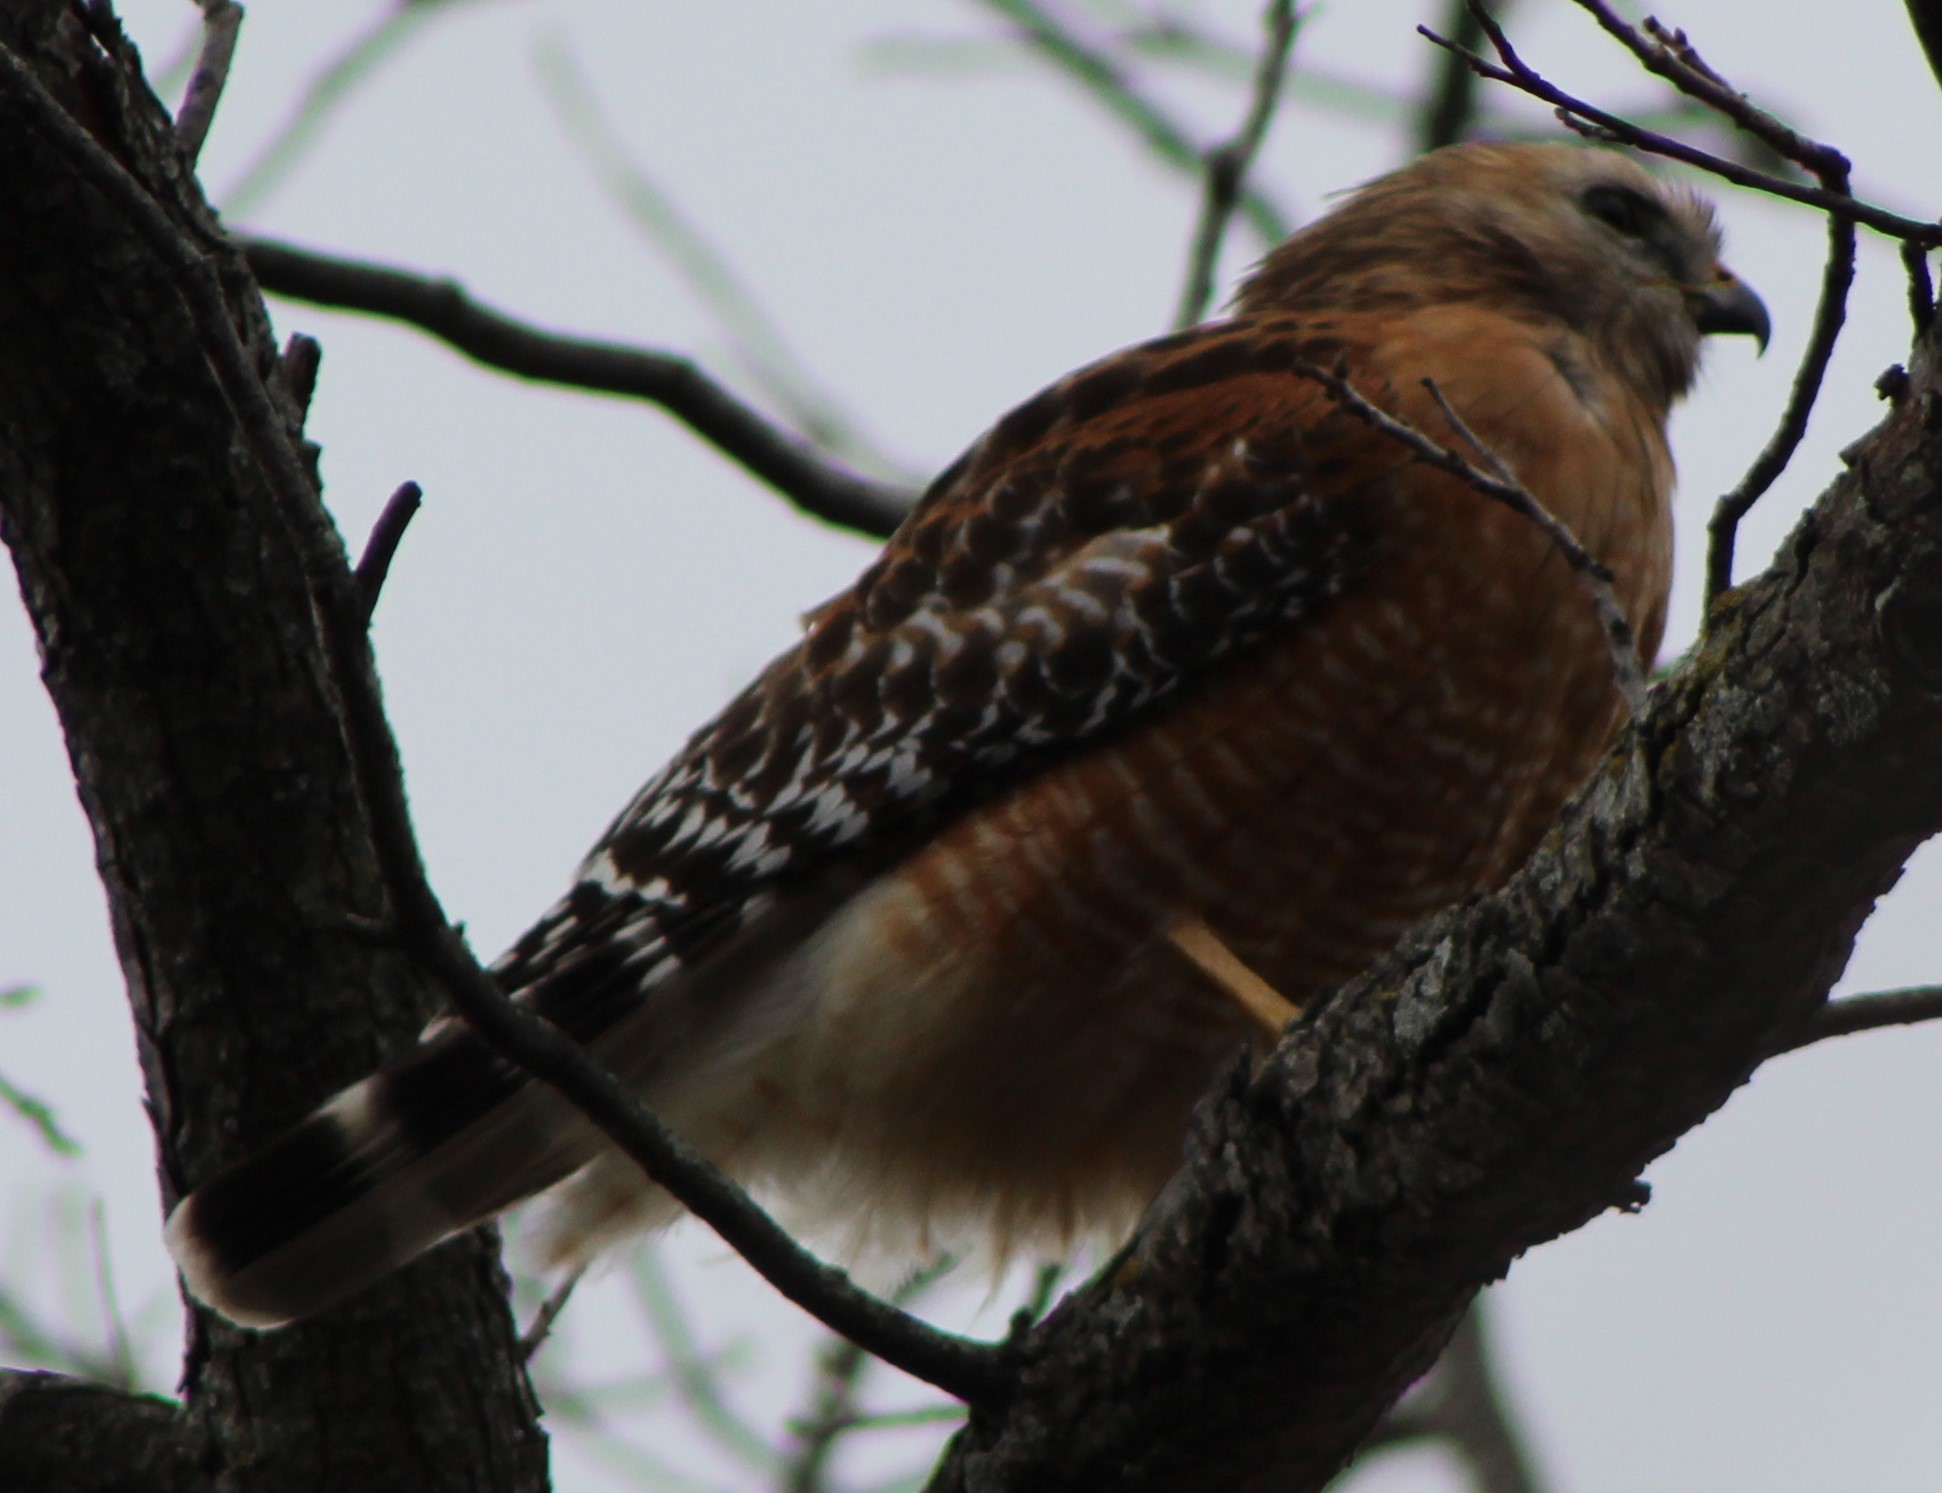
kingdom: Animalia
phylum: Chordata
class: Aves
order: Accipitriformes
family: Accipitridae
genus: Buteo
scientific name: Buteo lineatus
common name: Red-shouldered hawk
